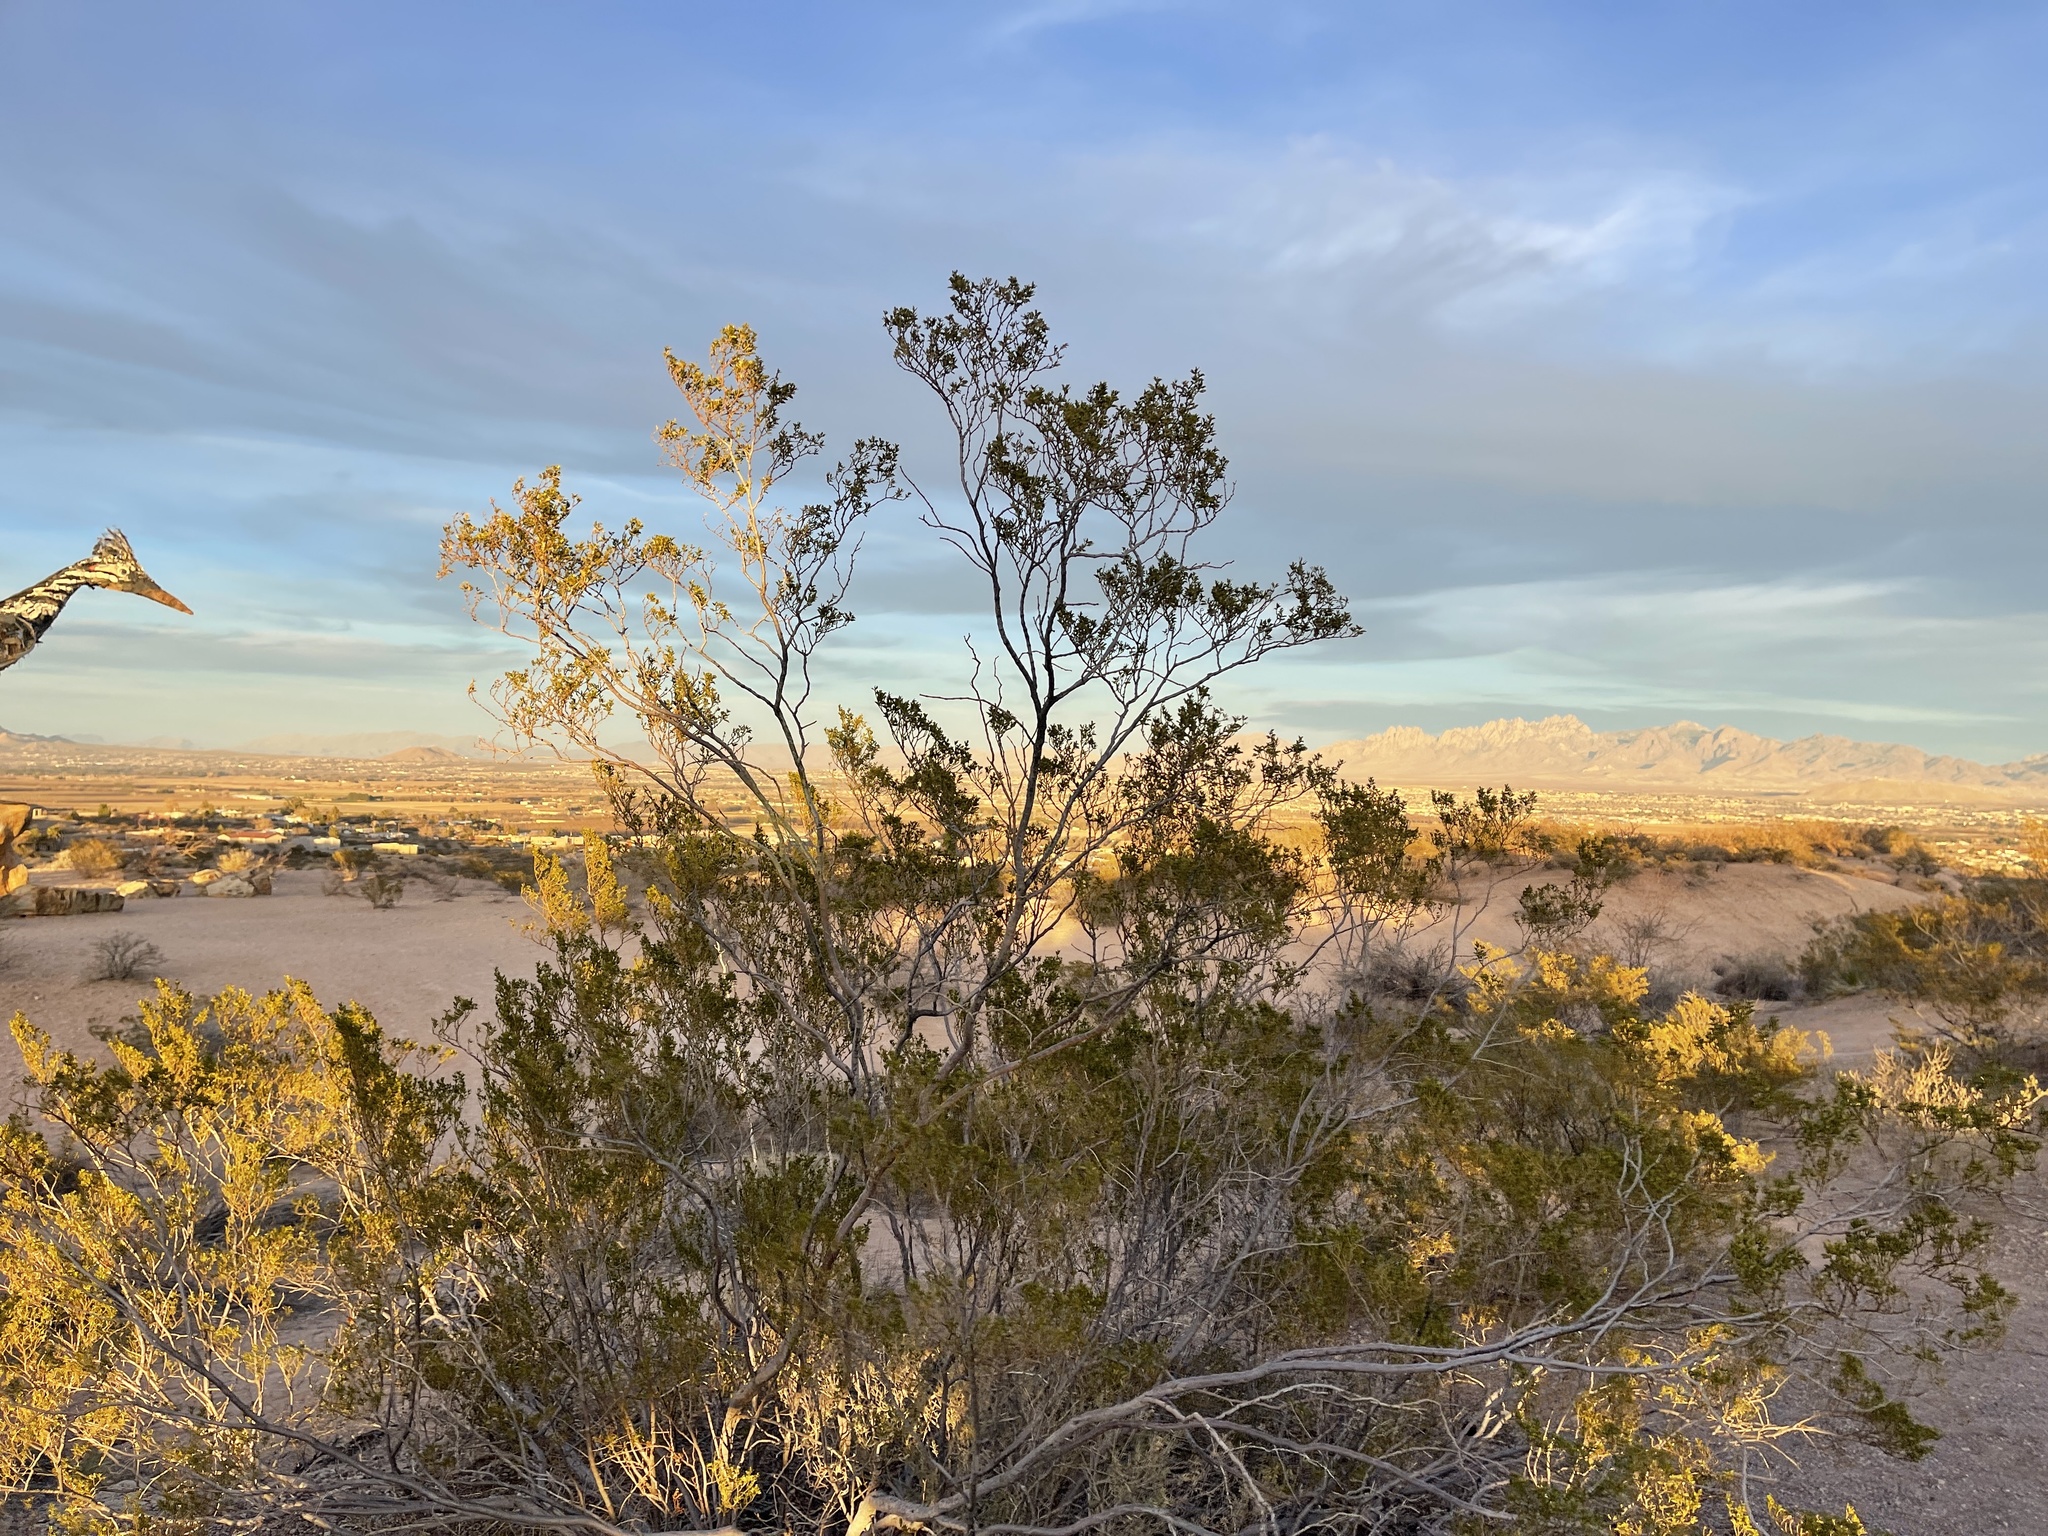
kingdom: Plantae
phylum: Tracheophyta
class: Magnoliopsida
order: Zygophyllales
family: Zygophyllaceae
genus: Larrea
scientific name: Larrea tridentata
